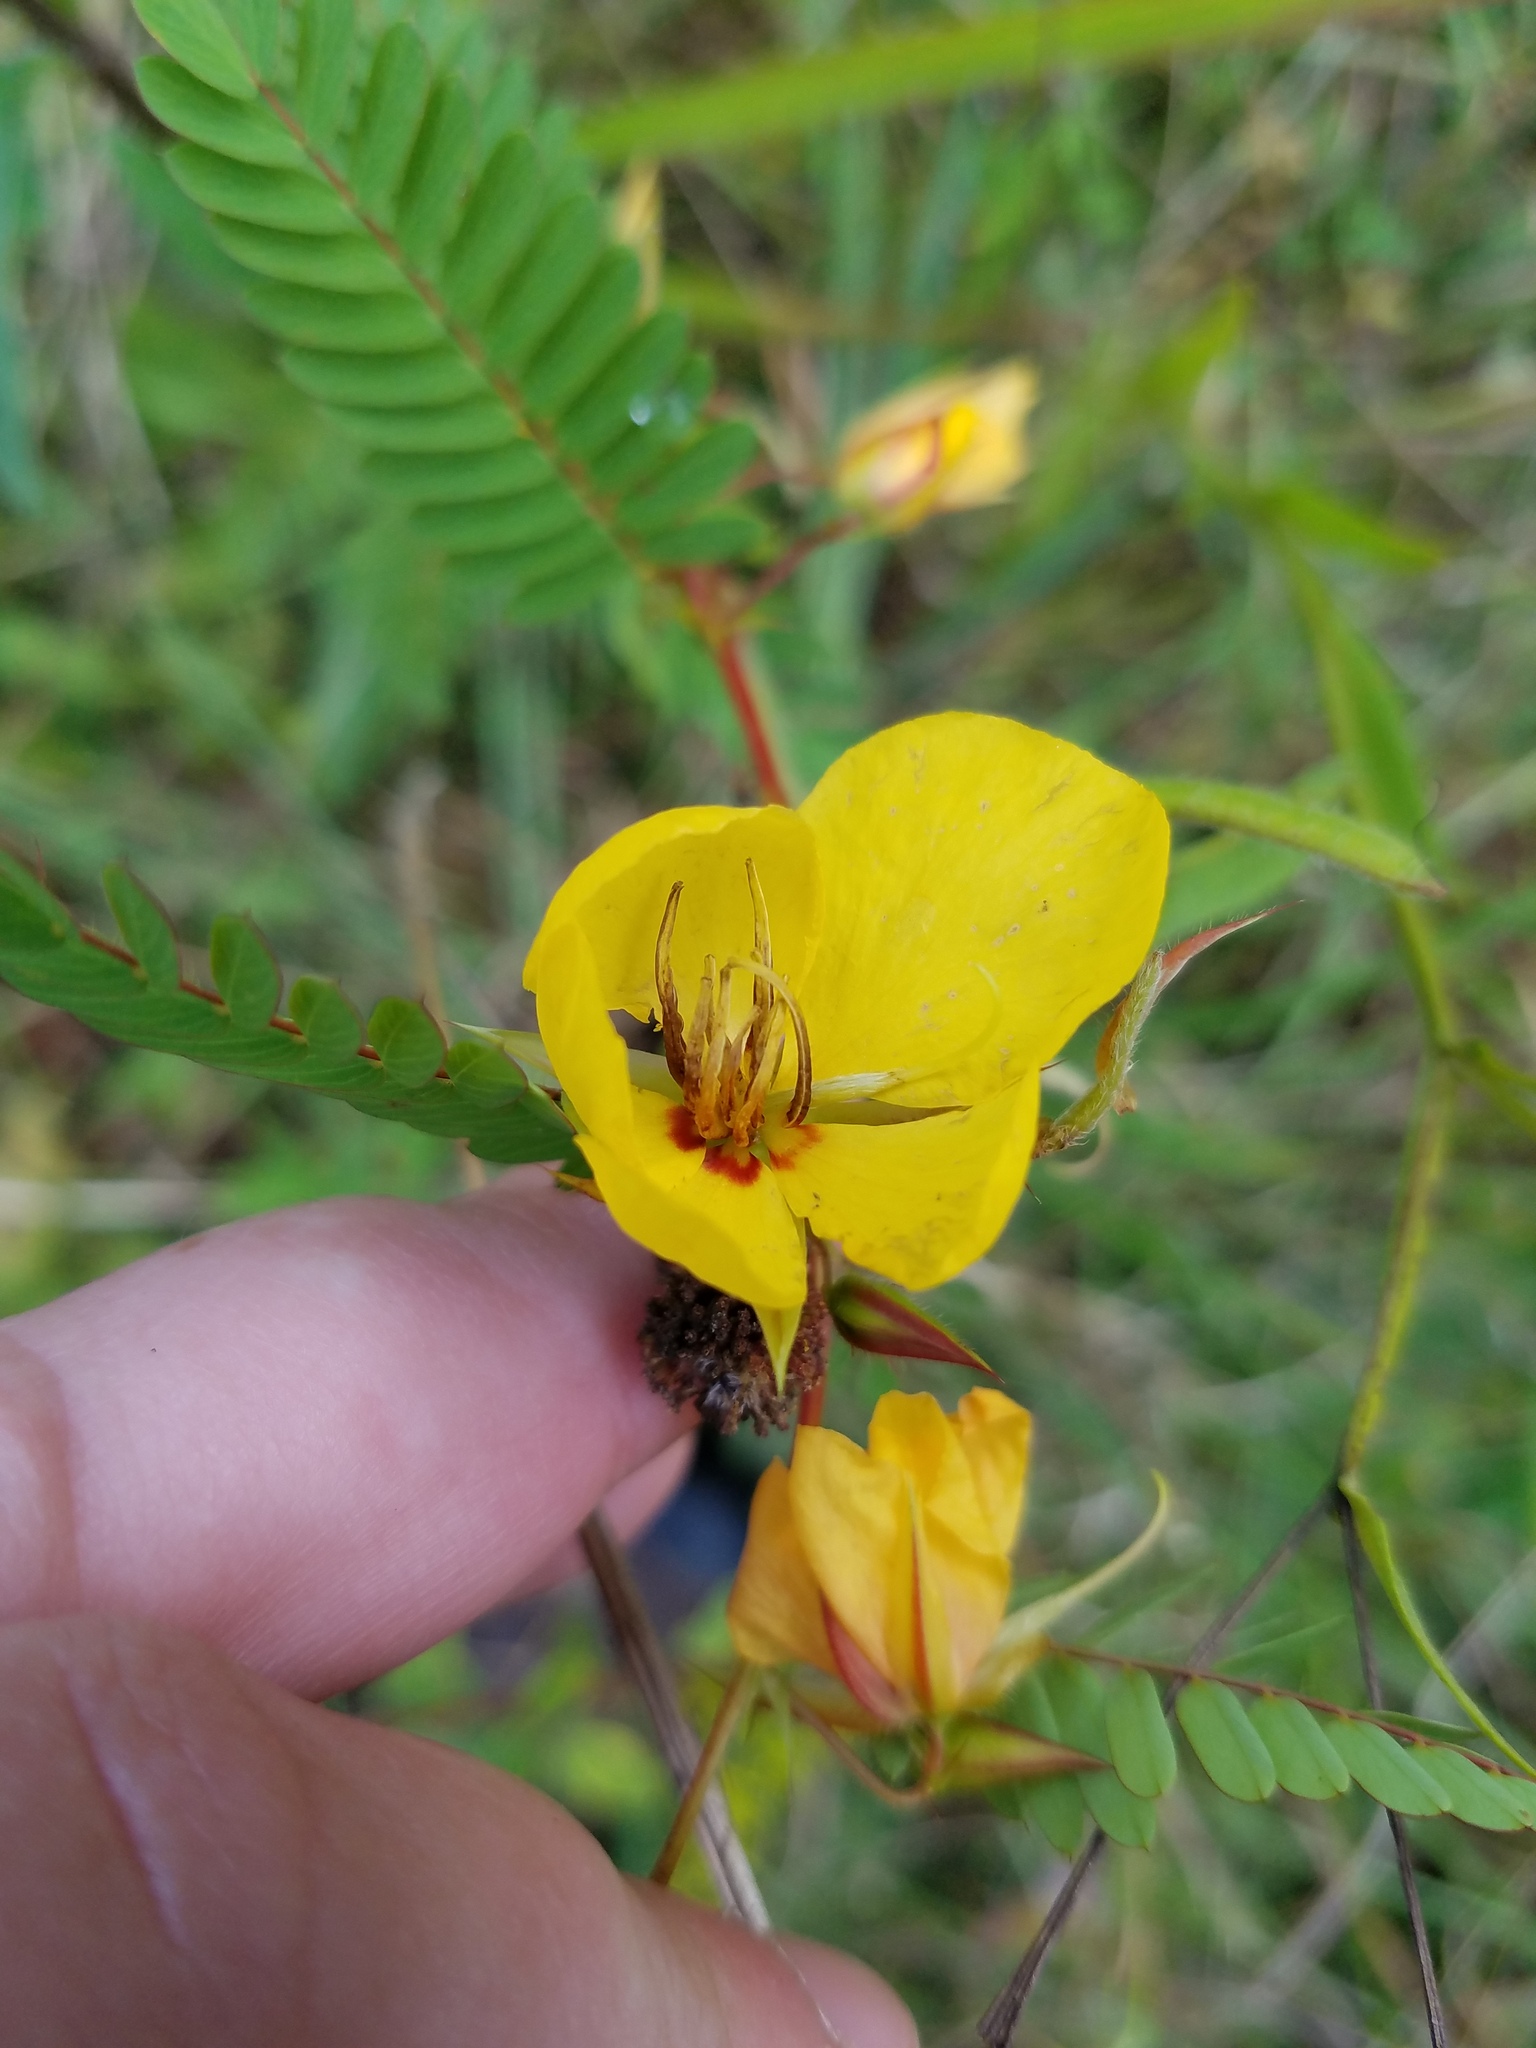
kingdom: Plantae
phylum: Tracheophyta
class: Magnoliopsida
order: Fabales
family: Fabaceae
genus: Chamaecrista
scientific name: Chamaecrista fasciculata
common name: Golden cassia
